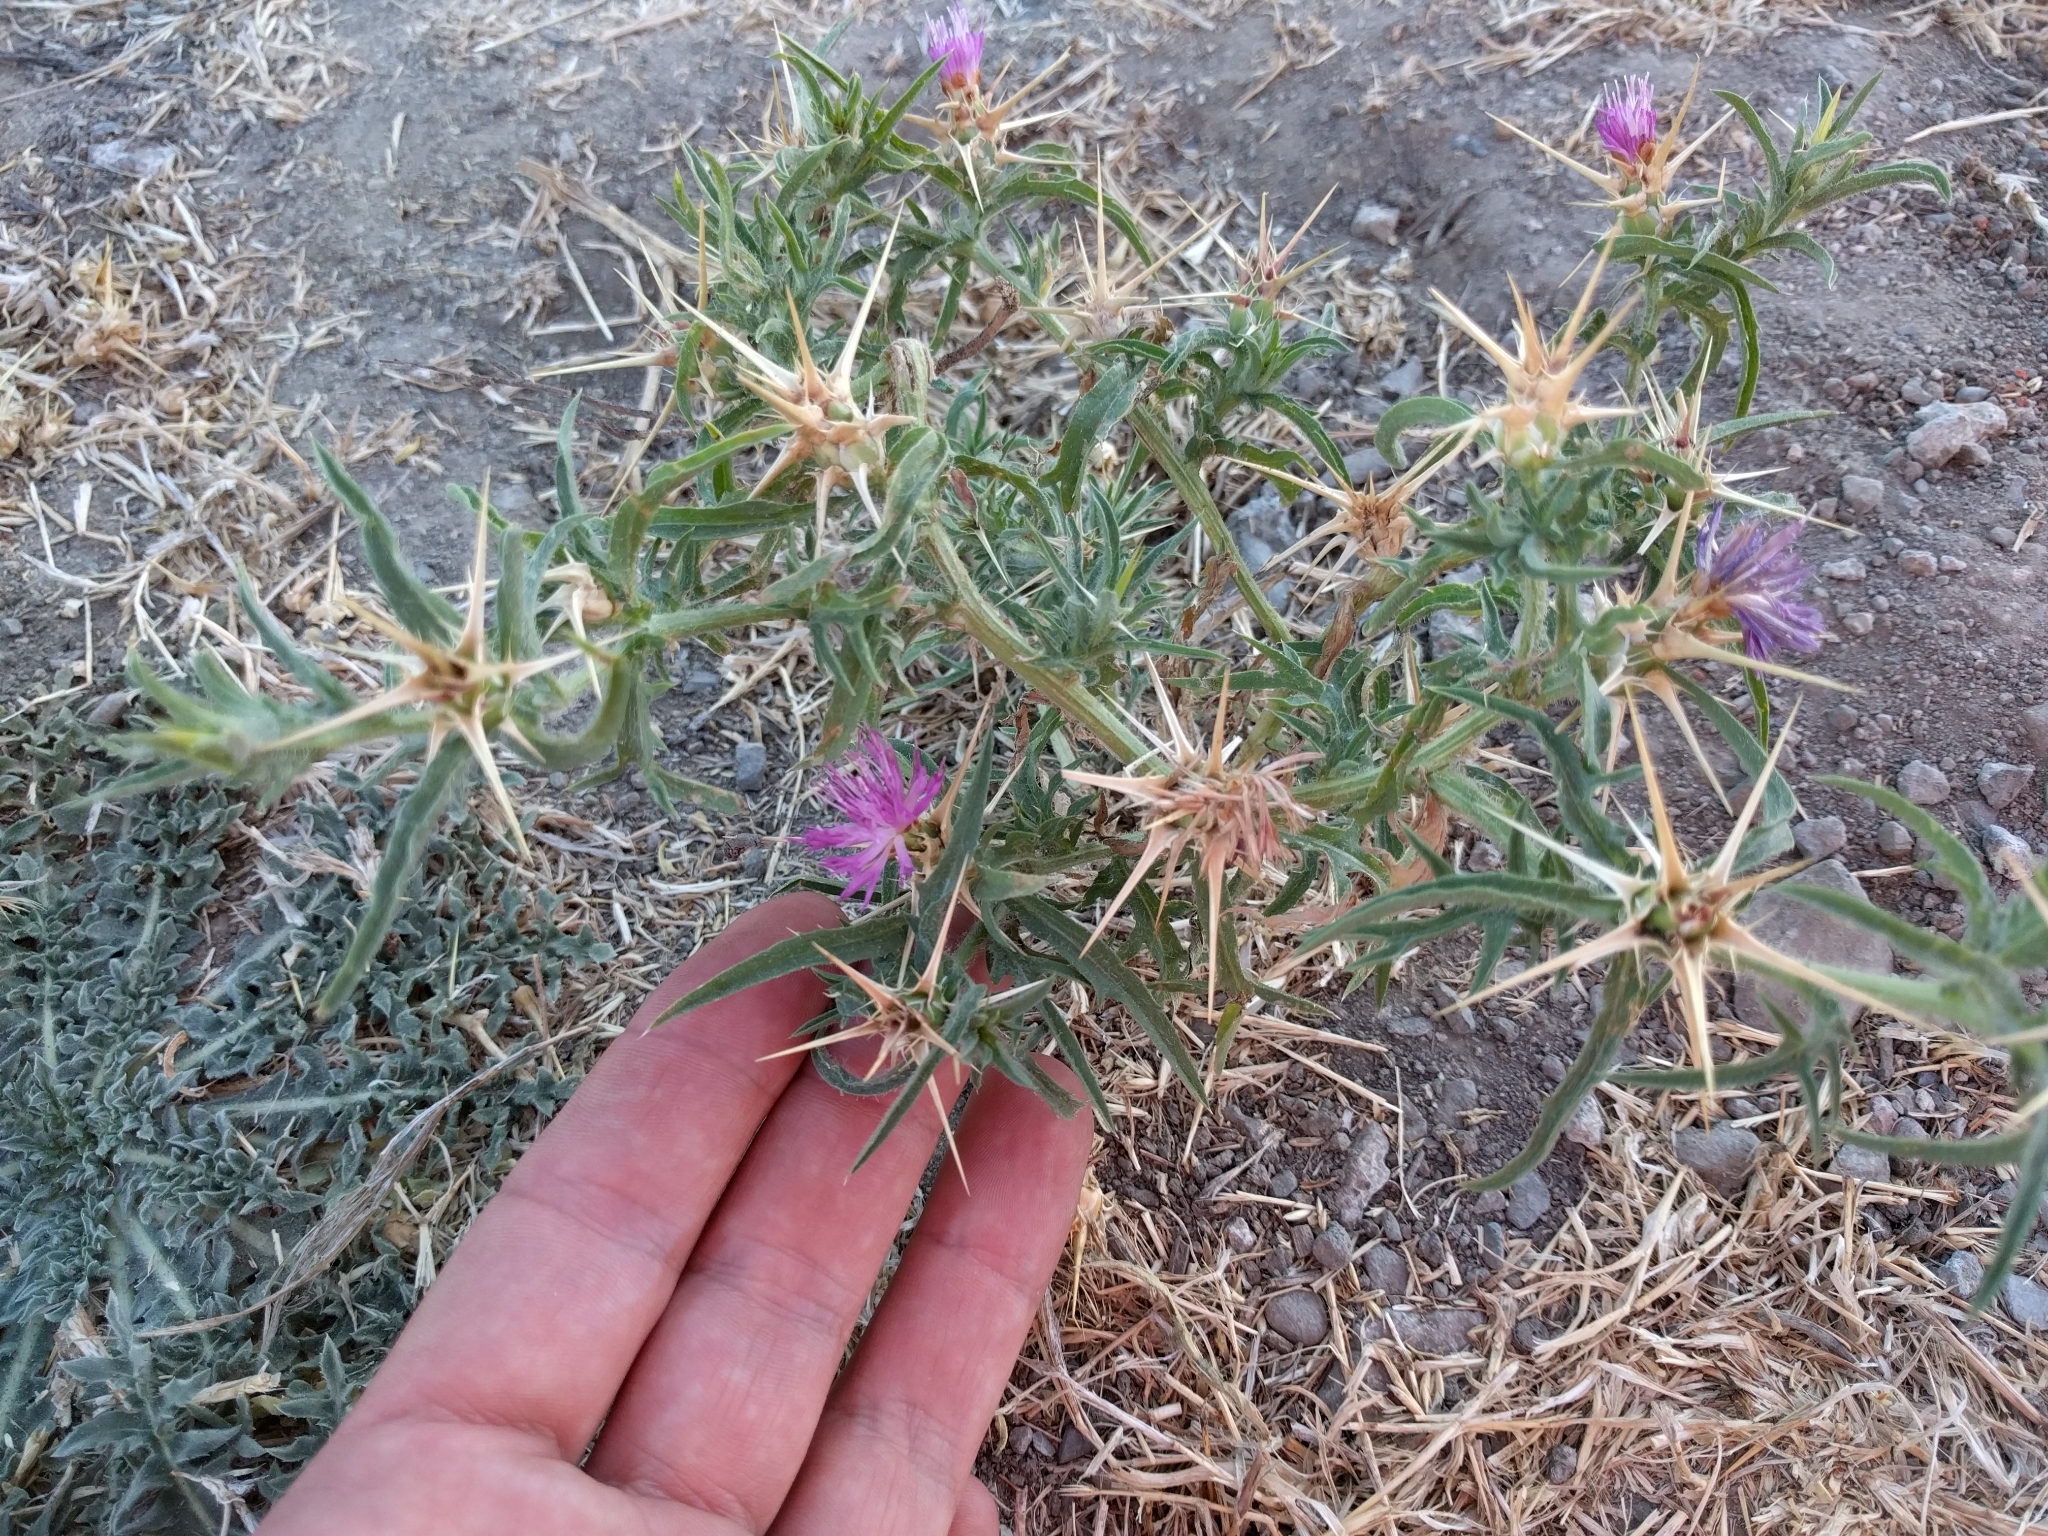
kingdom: Plantae
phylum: Tracheophyta
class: Magnoliopsida
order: Asterales
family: Asteraceae
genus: Centaurea
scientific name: Centaurea calcitrapa
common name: Red star-thistle
